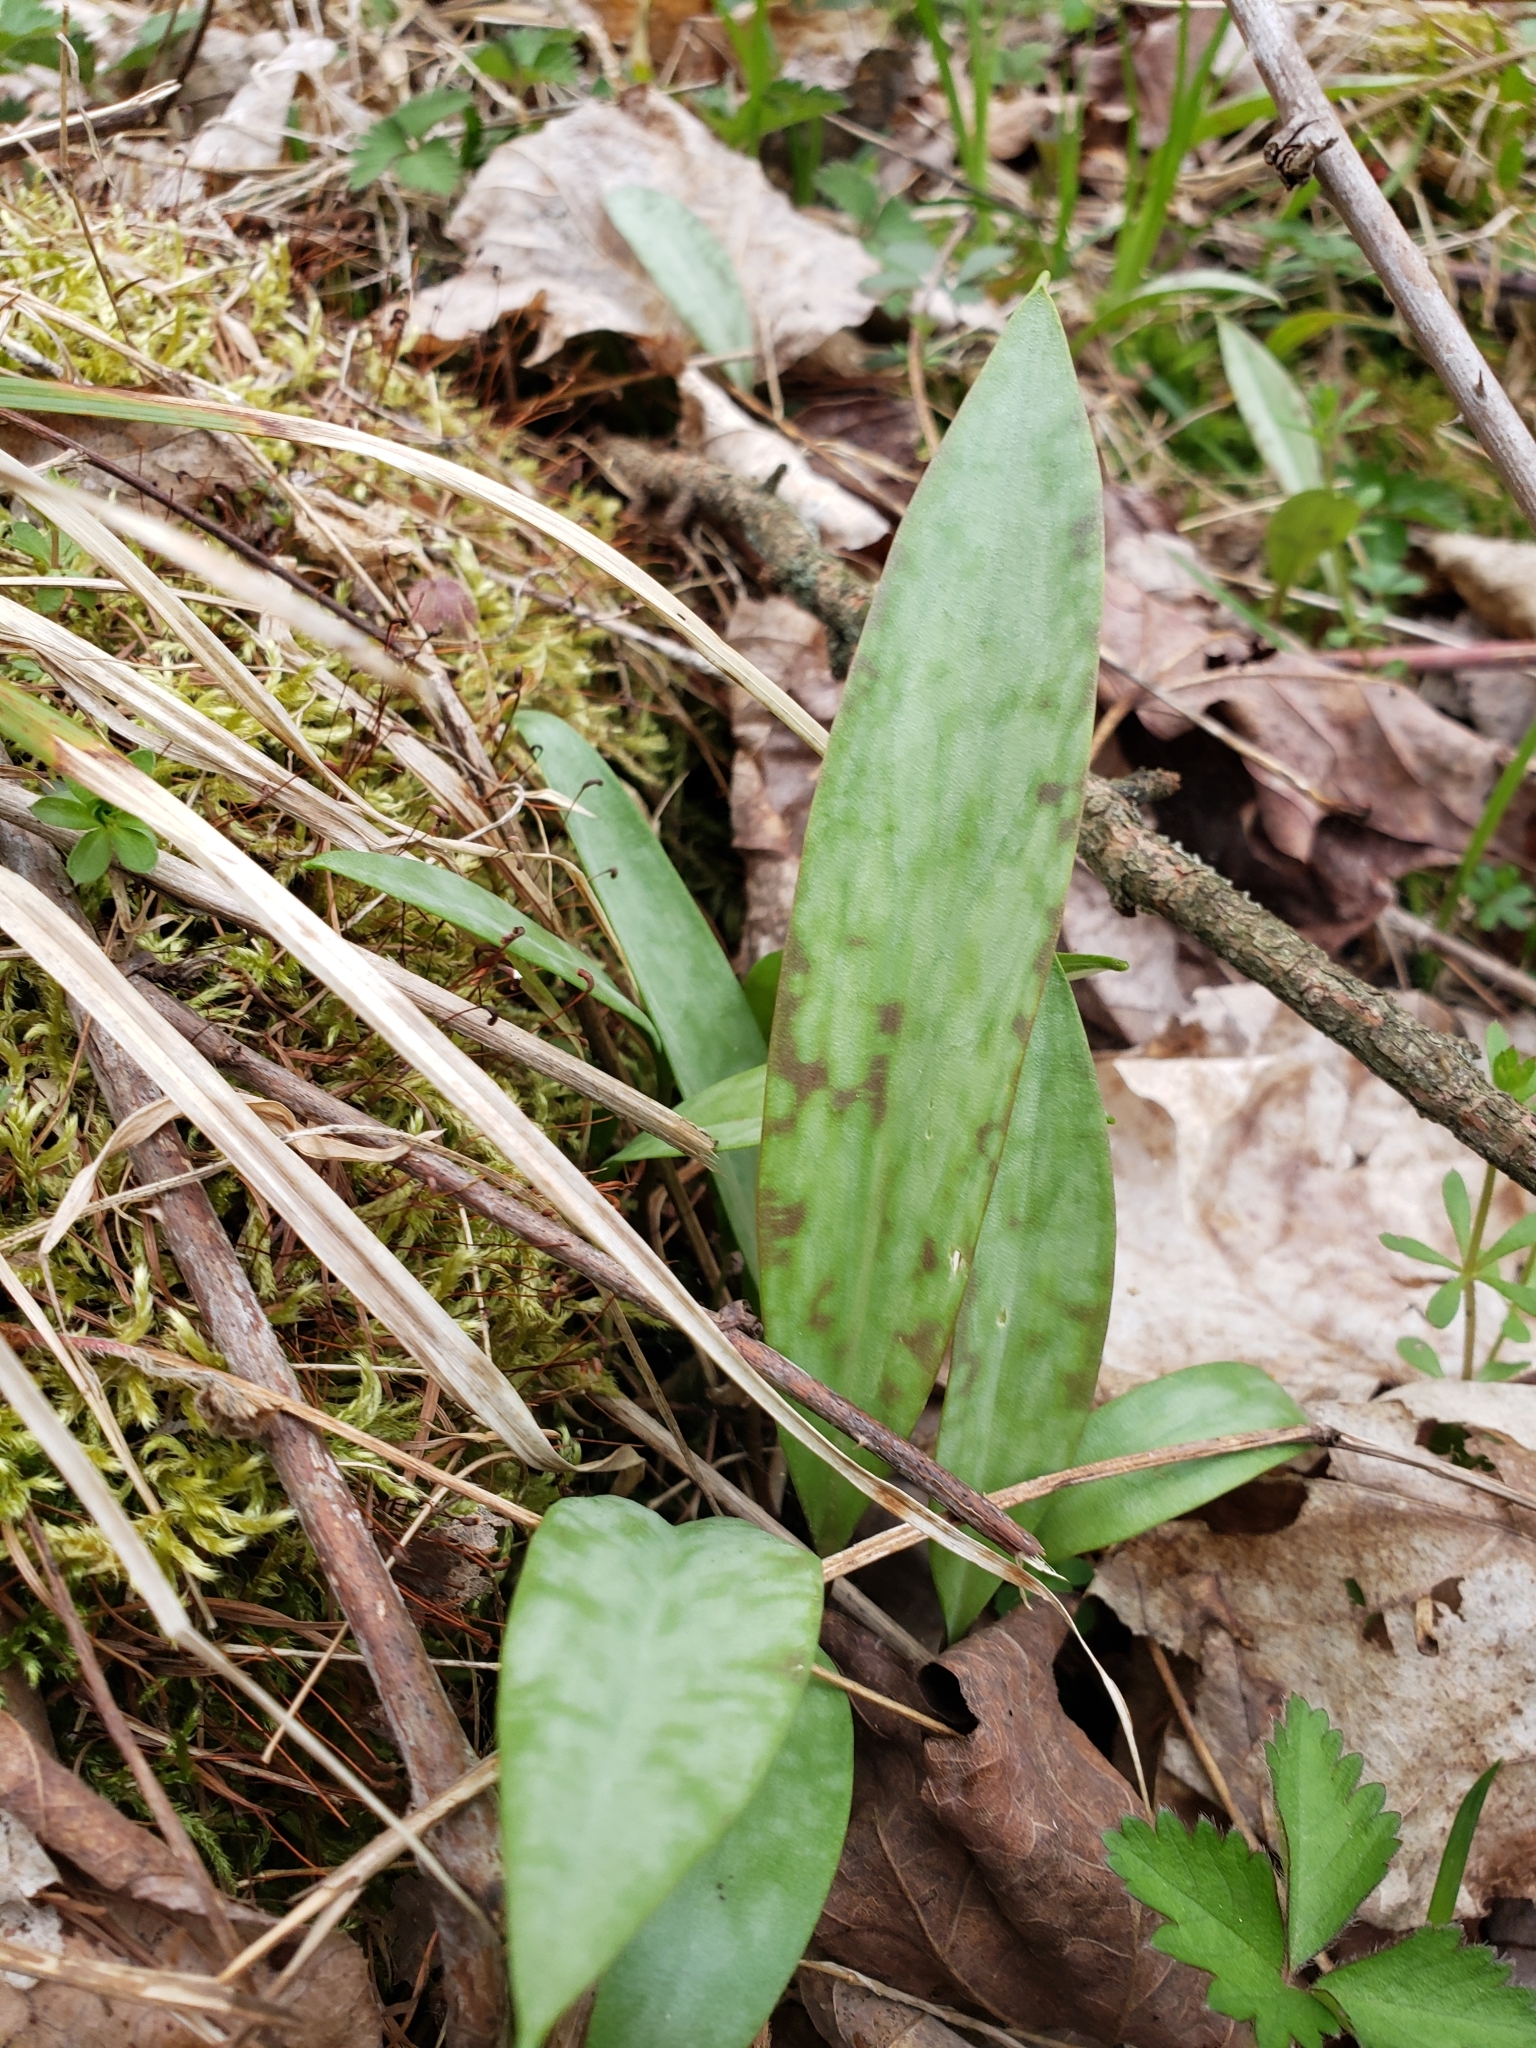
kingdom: Plantae
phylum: Tracheophyta
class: Liliopsida
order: Liliales
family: Liliaceae
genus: Erythronium
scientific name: Erythronium americanum
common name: Yellow adder's-tongue
